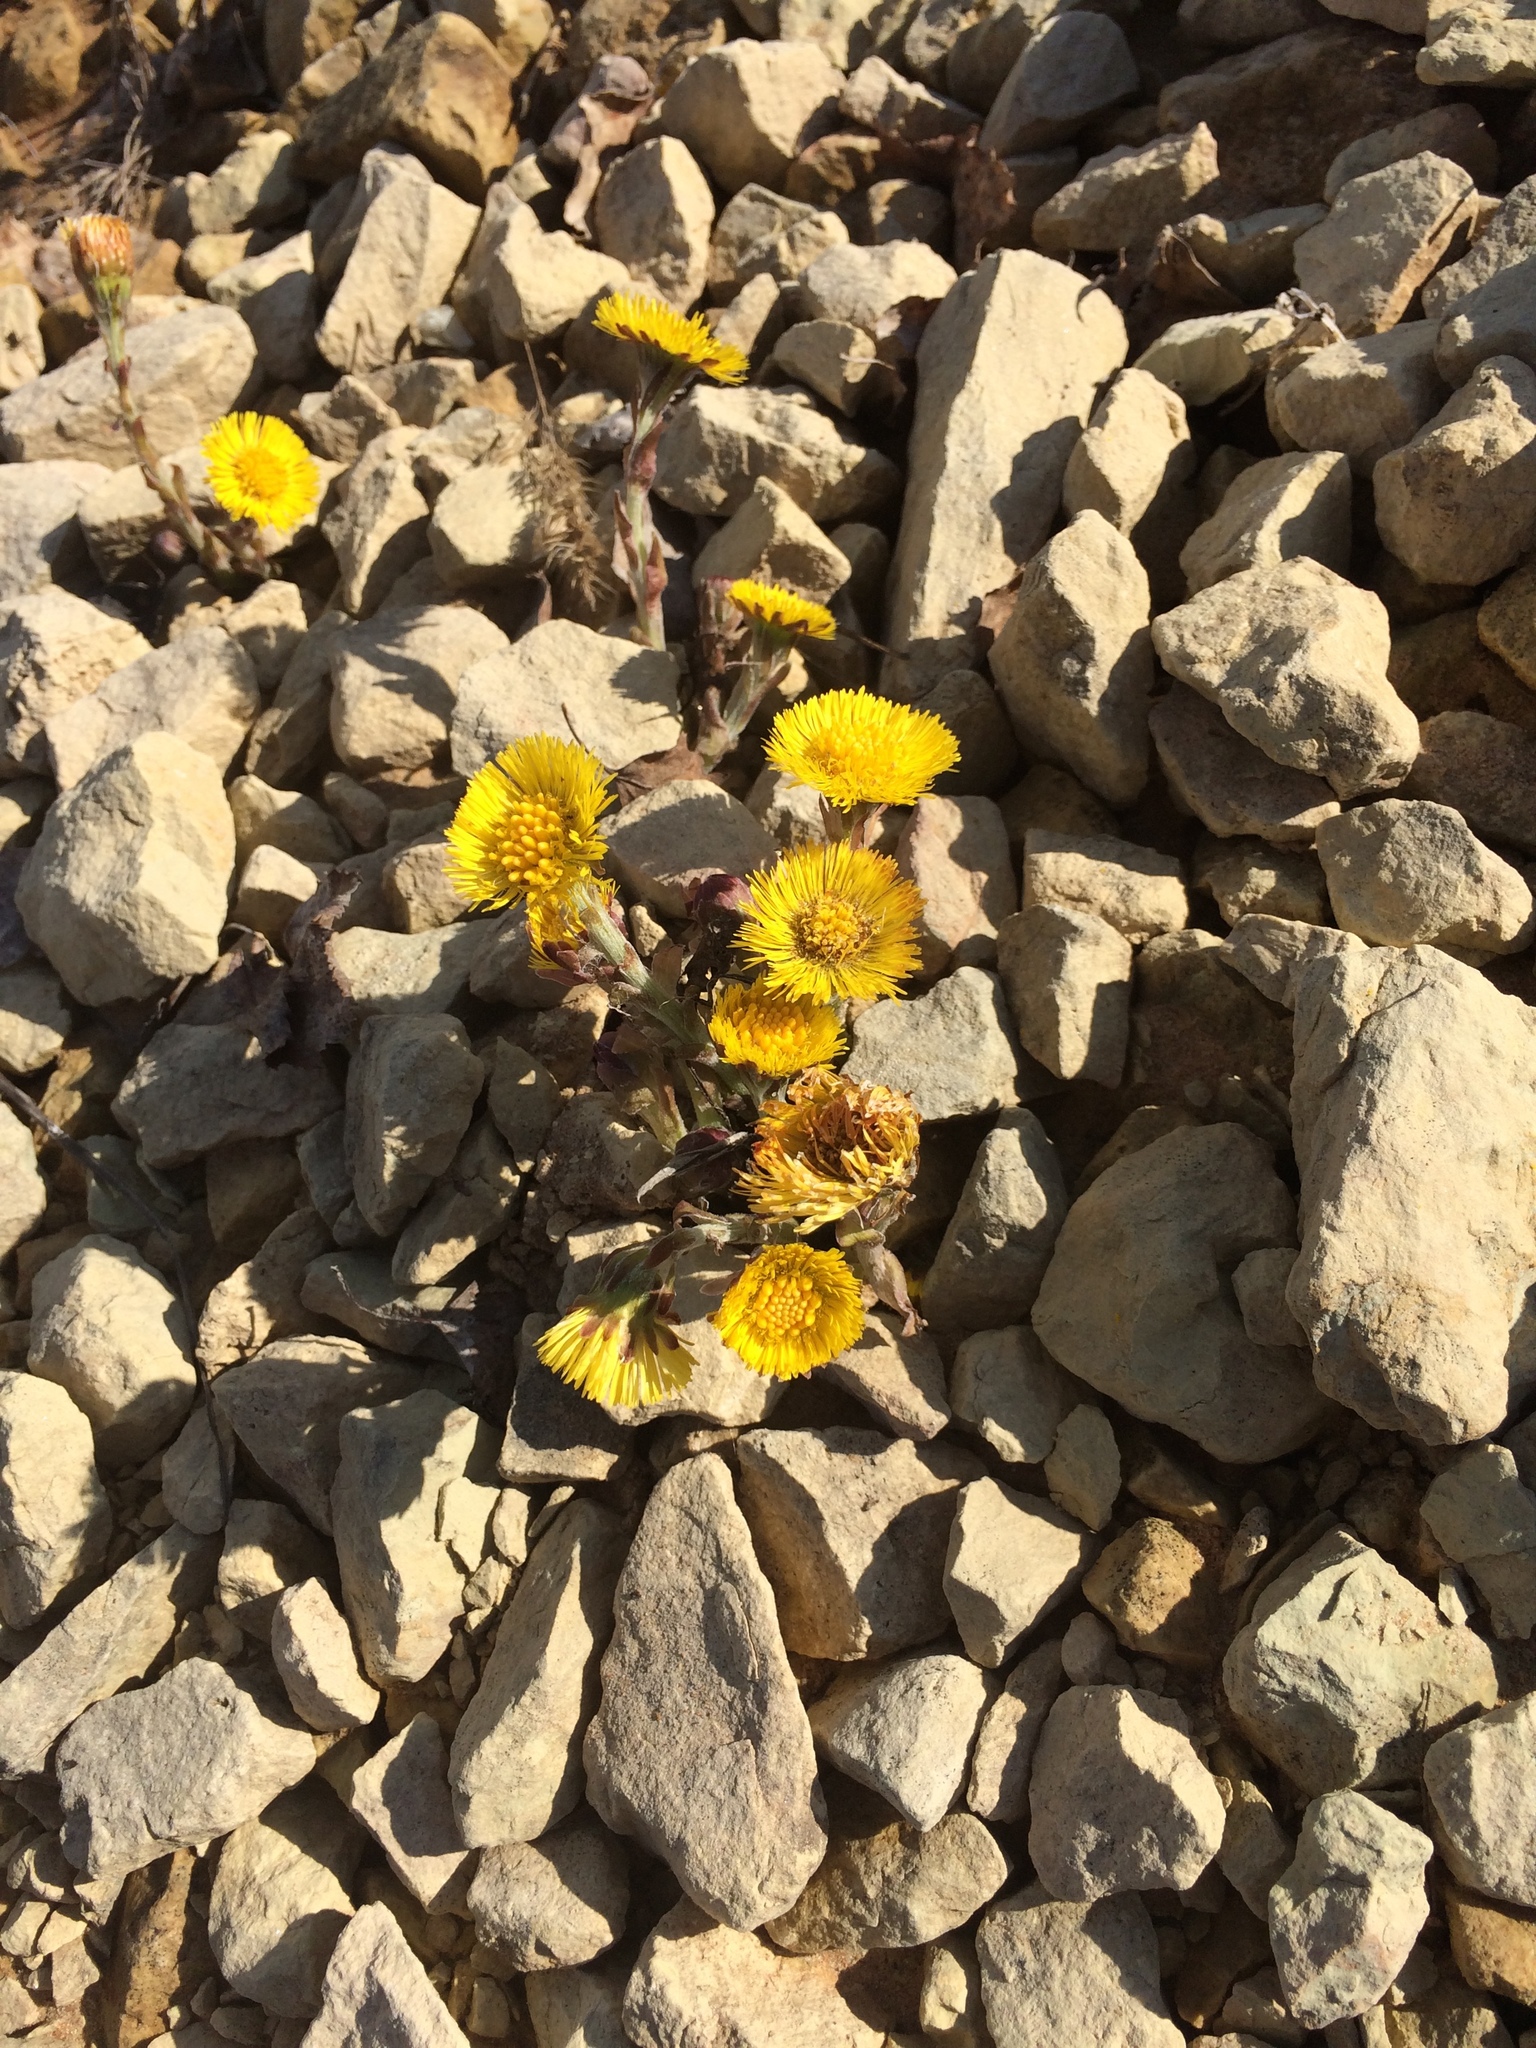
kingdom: Plantae
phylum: Tracheophyta
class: Magnoliopsida
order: Asterales
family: Asteraceae
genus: Tussilago
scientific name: Tussilago farfara
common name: Coltsfoot
